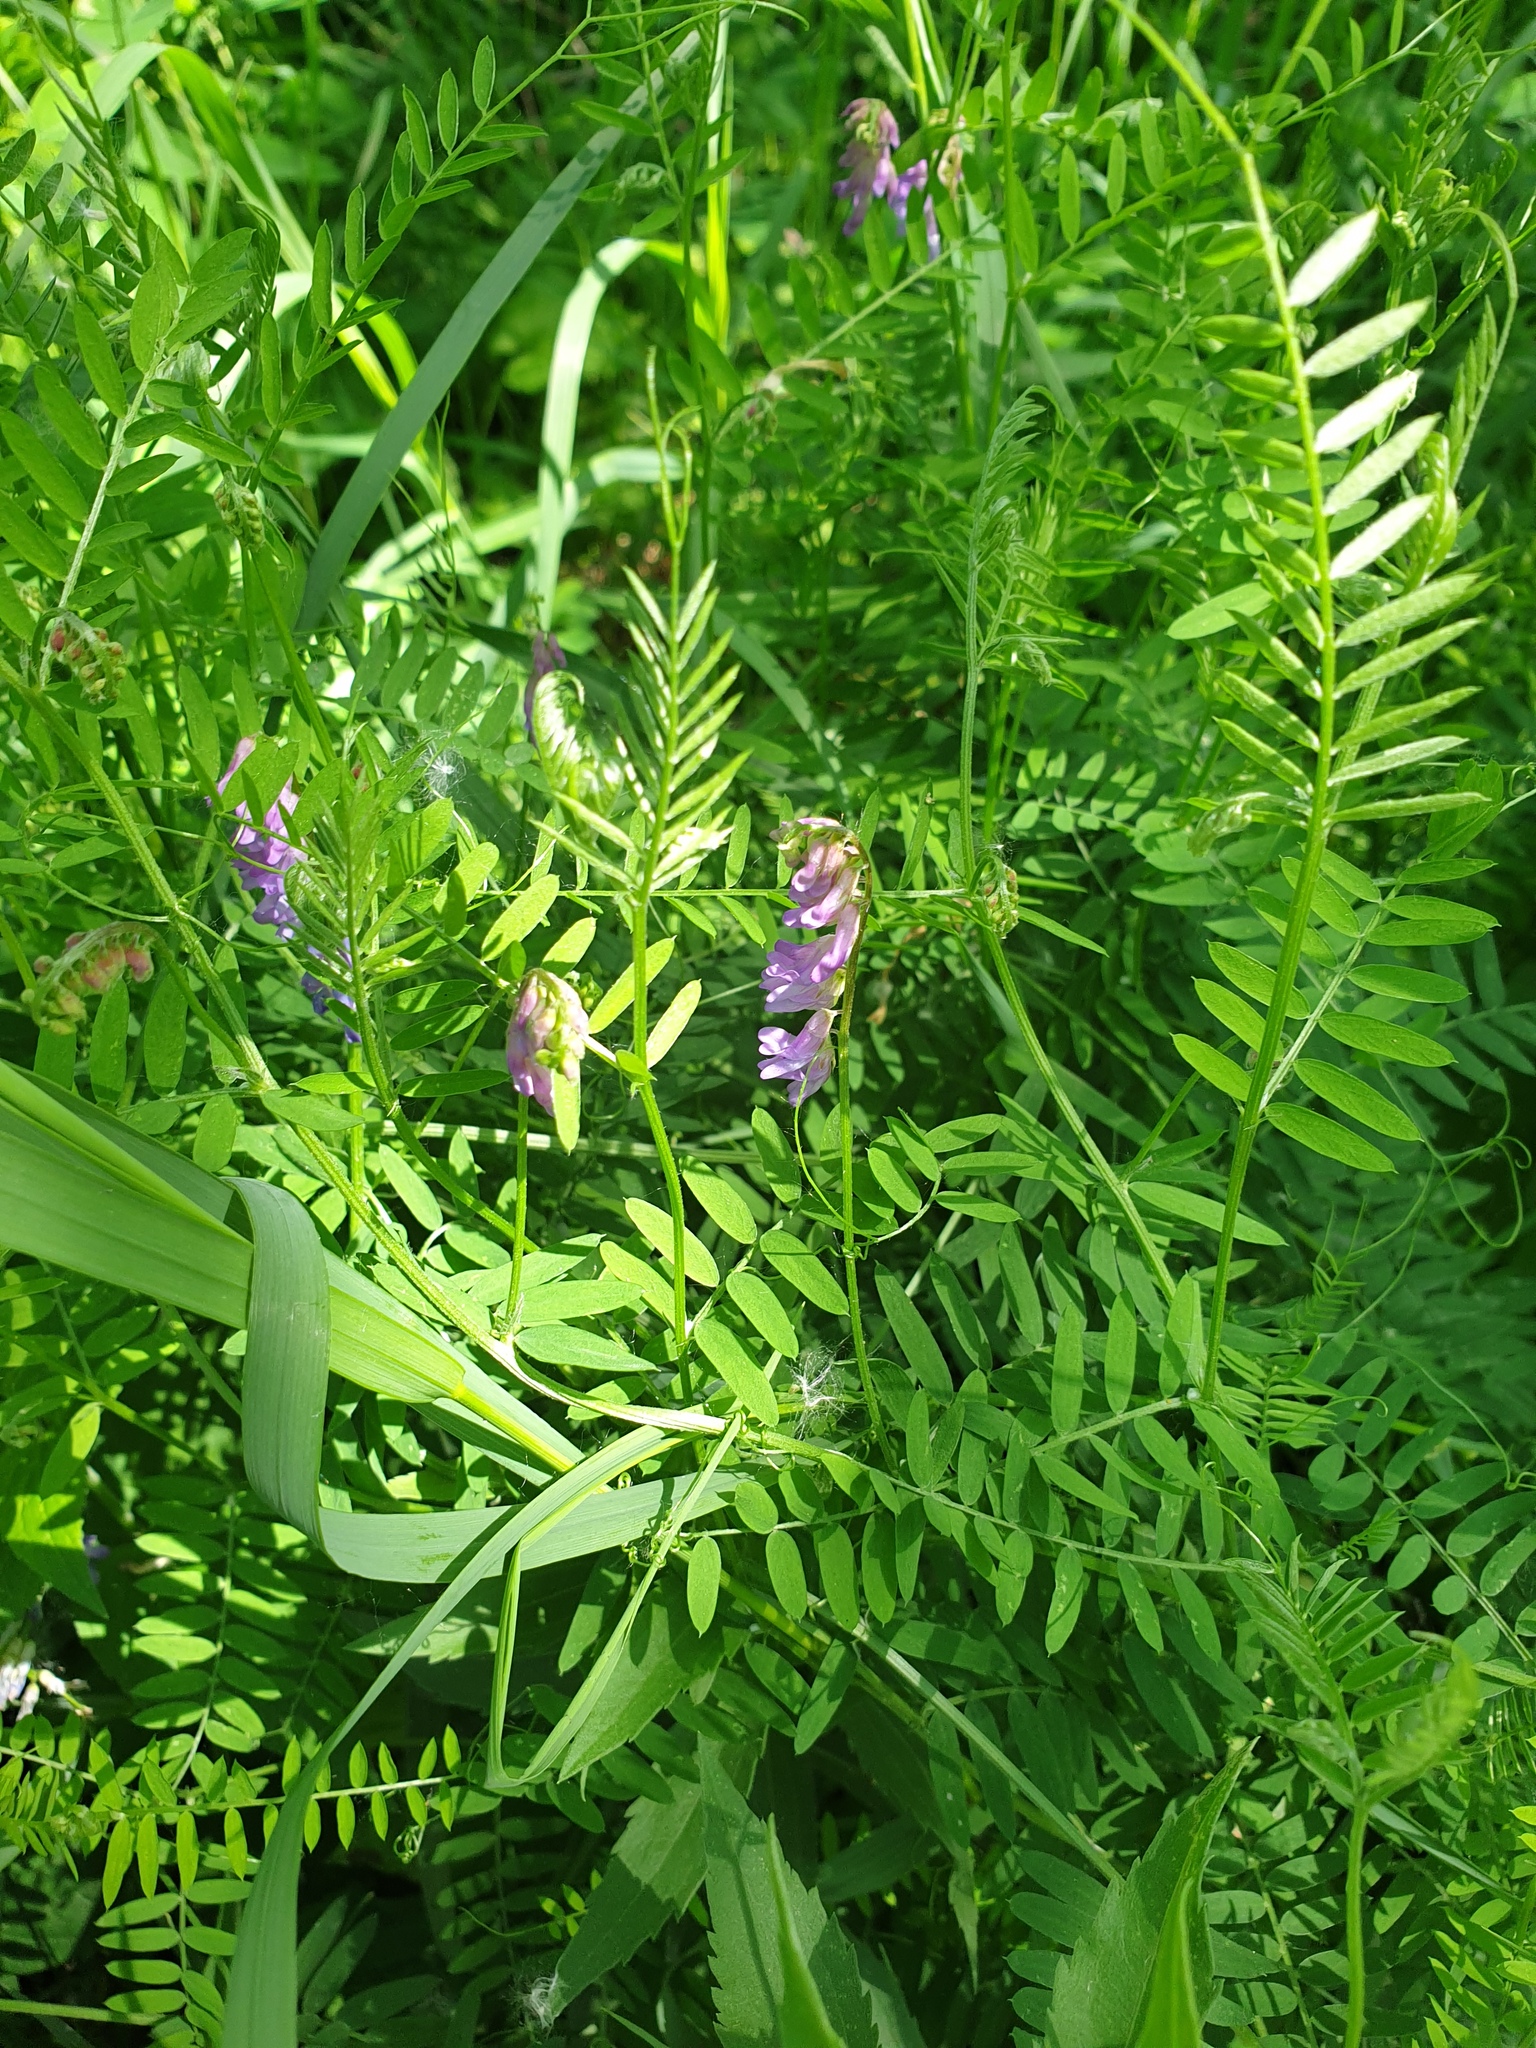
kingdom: Plantae
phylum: Tracheophyta
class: Magnoliopsida
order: Fabales
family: Fabaceae
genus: Vicia
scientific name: Vicia cracca
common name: Bird vetch
